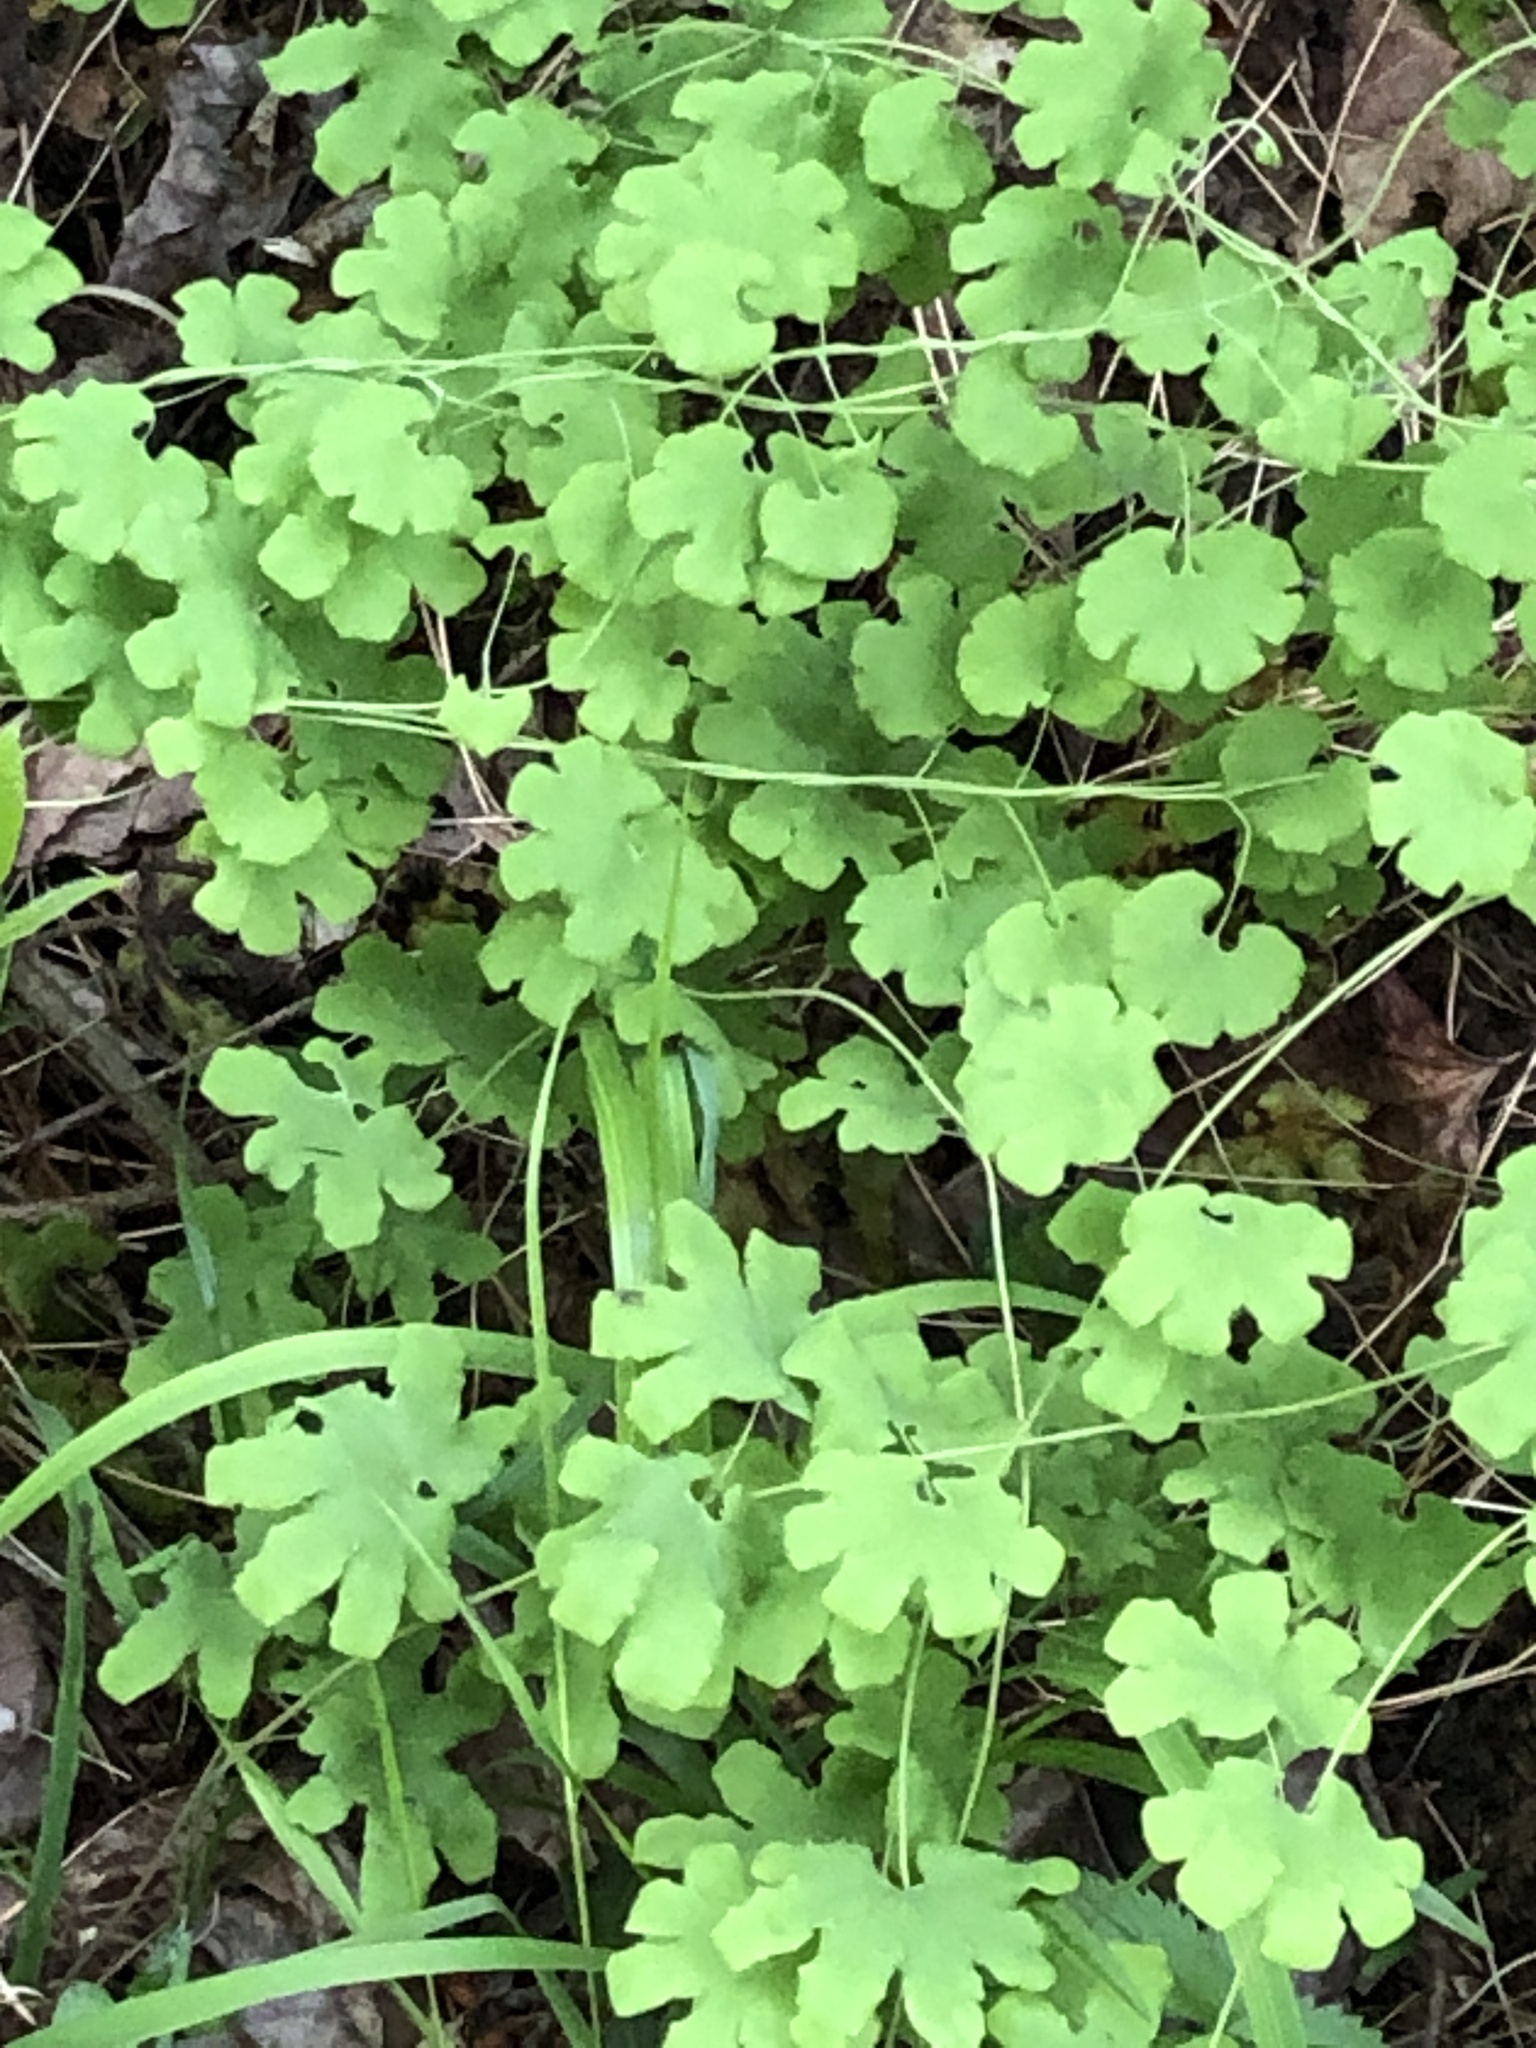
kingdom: Plantae
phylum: Tracheophyta
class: Polypodiopsida
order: Schizaeales
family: Lygodiaceae
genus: Lygodium
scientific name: Lygodium palmatum
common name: American climbing fern
